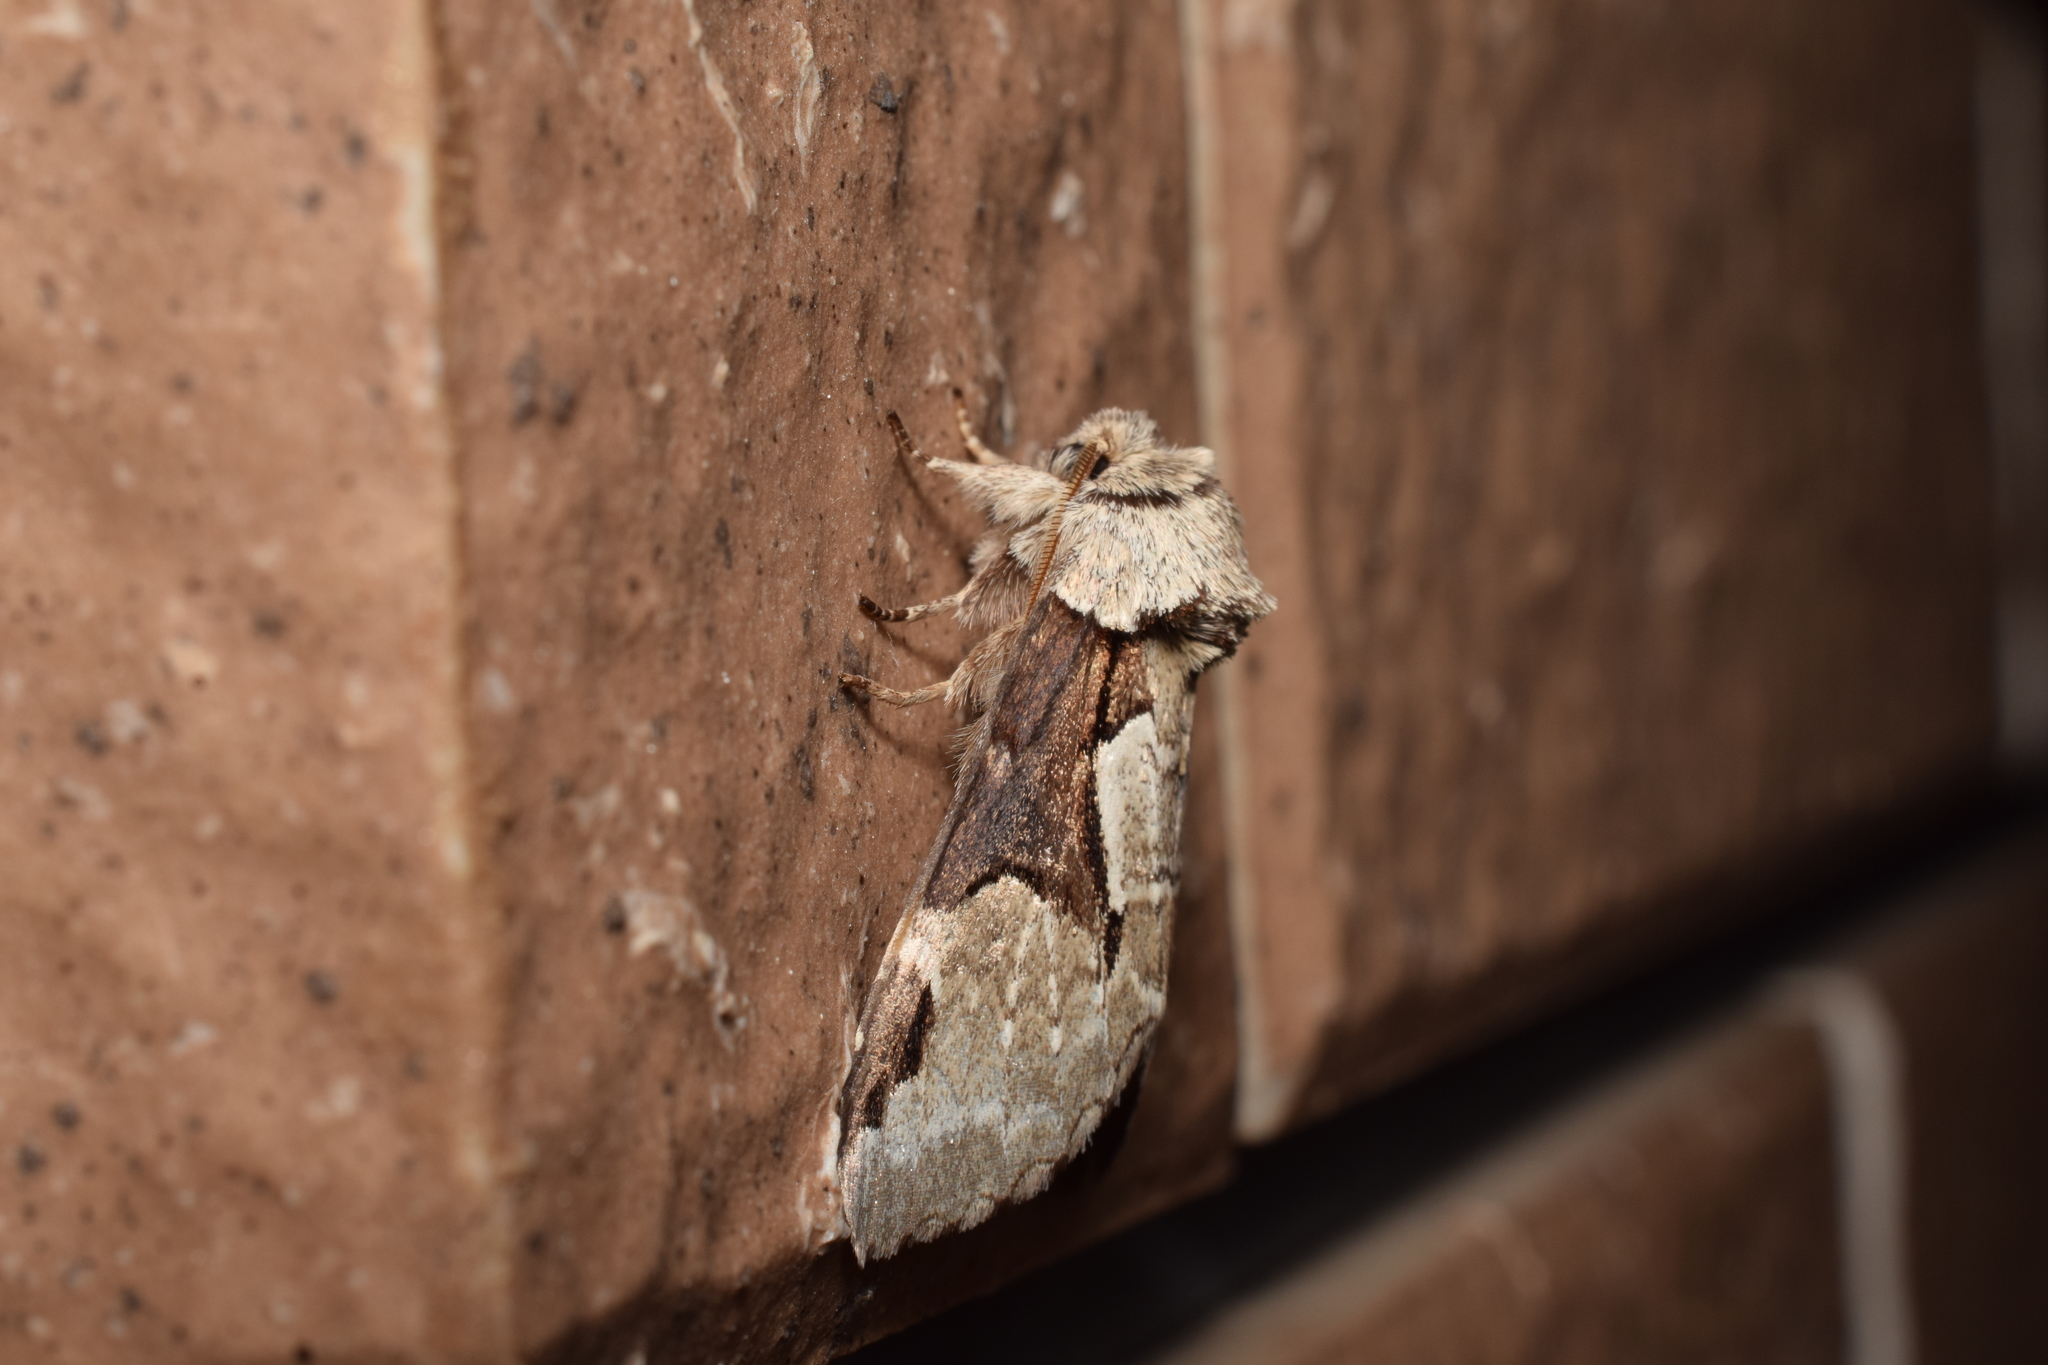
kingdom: Animalia
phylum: Arthropoda
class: Insecta
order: Lepidoptera
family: Notodontidae
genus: Wilemanus
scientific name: Wilemanus bidentatus
